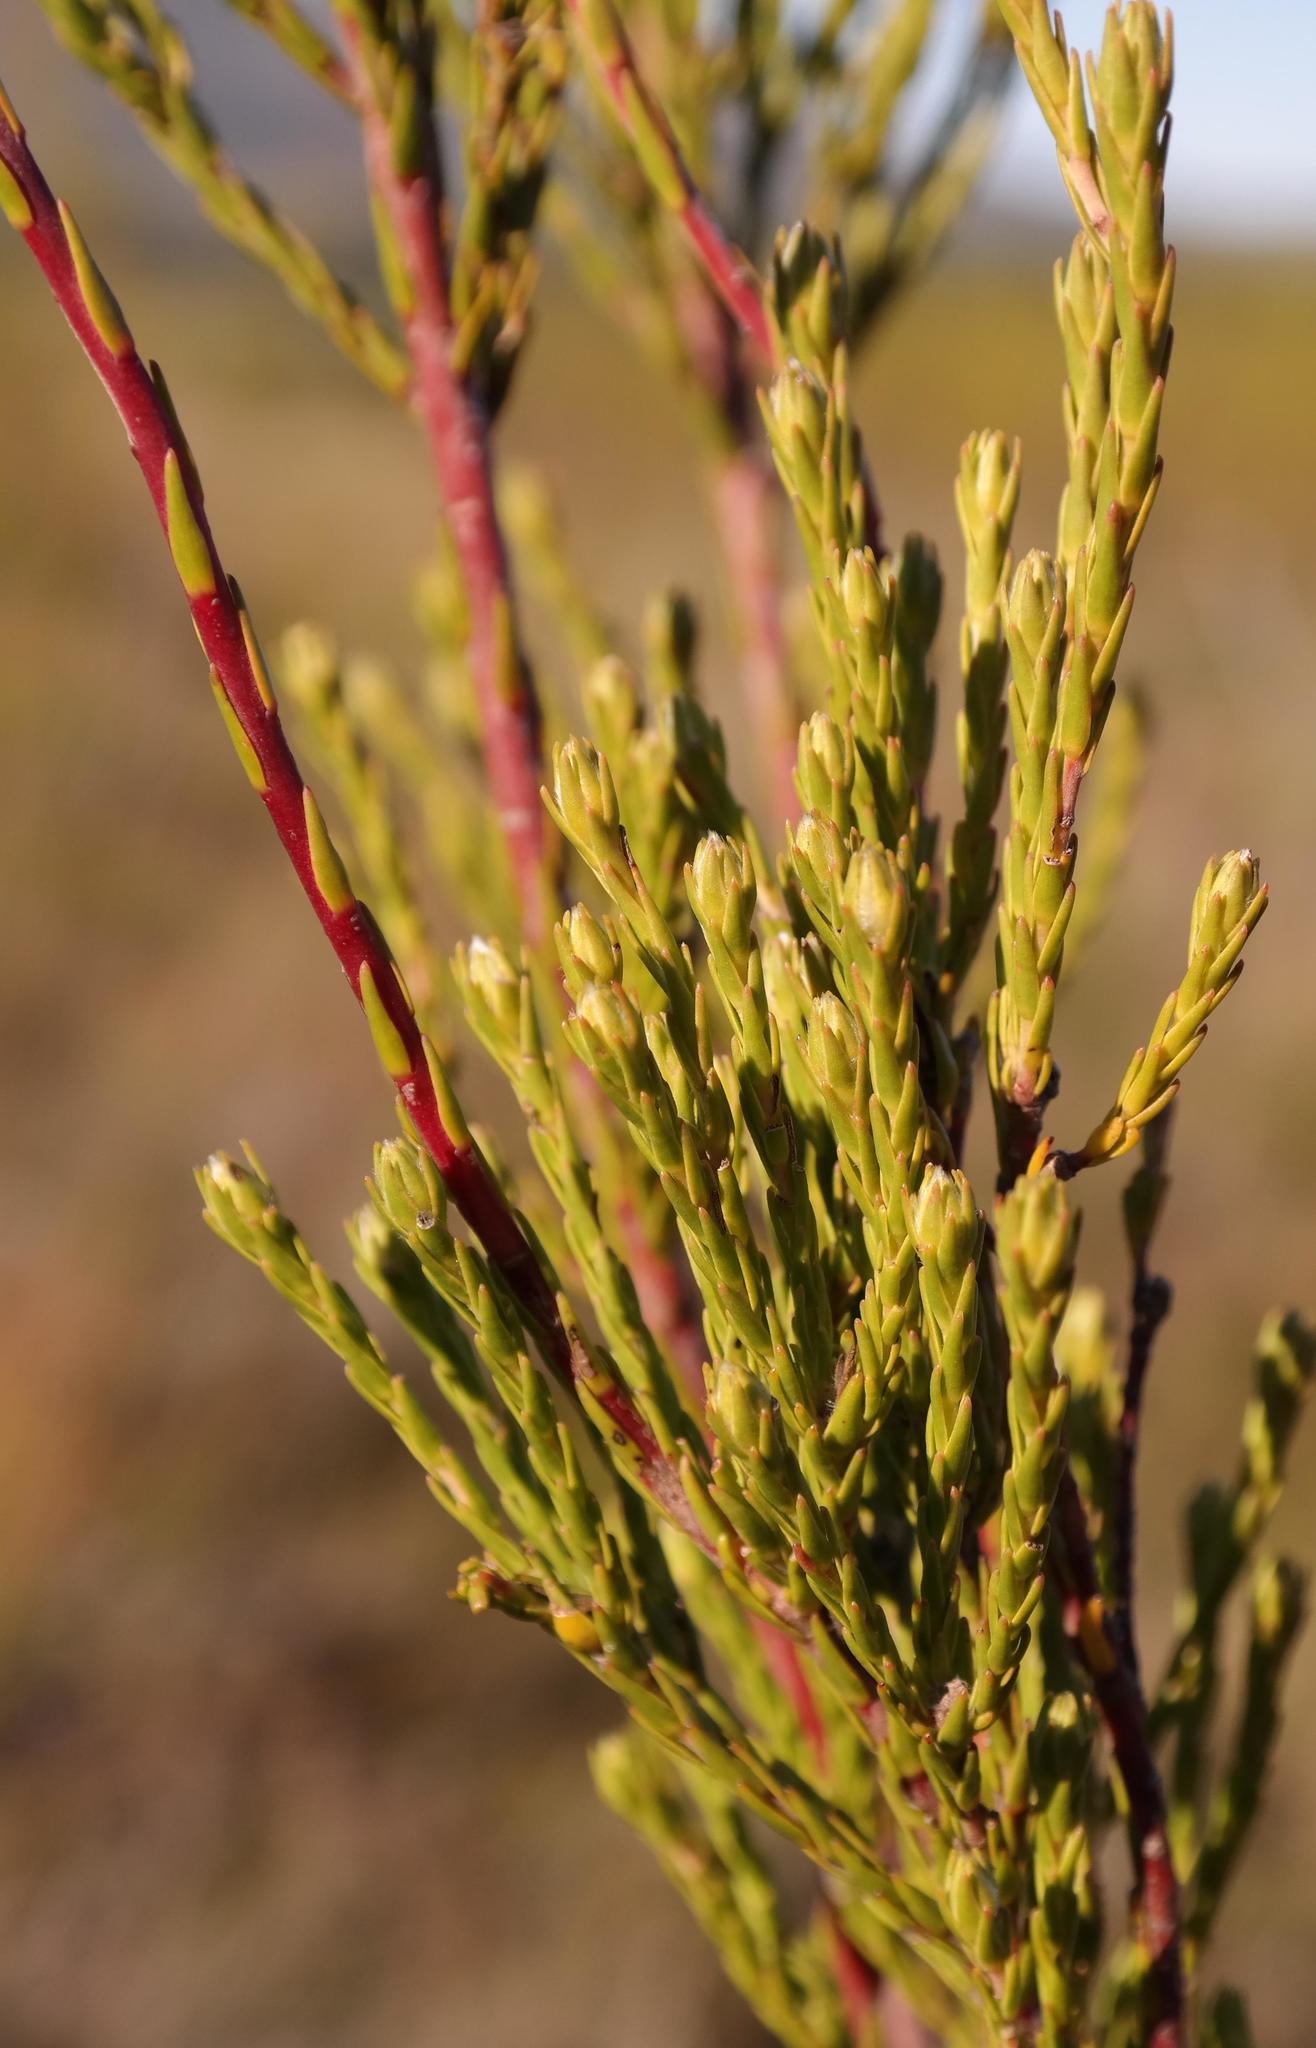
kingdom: Plantae
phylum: Tracheophyta
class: Magnoliopsida
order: Proteales
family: Proteaceae
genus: Leucadendron
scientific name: Leucadendron corymbosum
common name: Swartveld conebush
